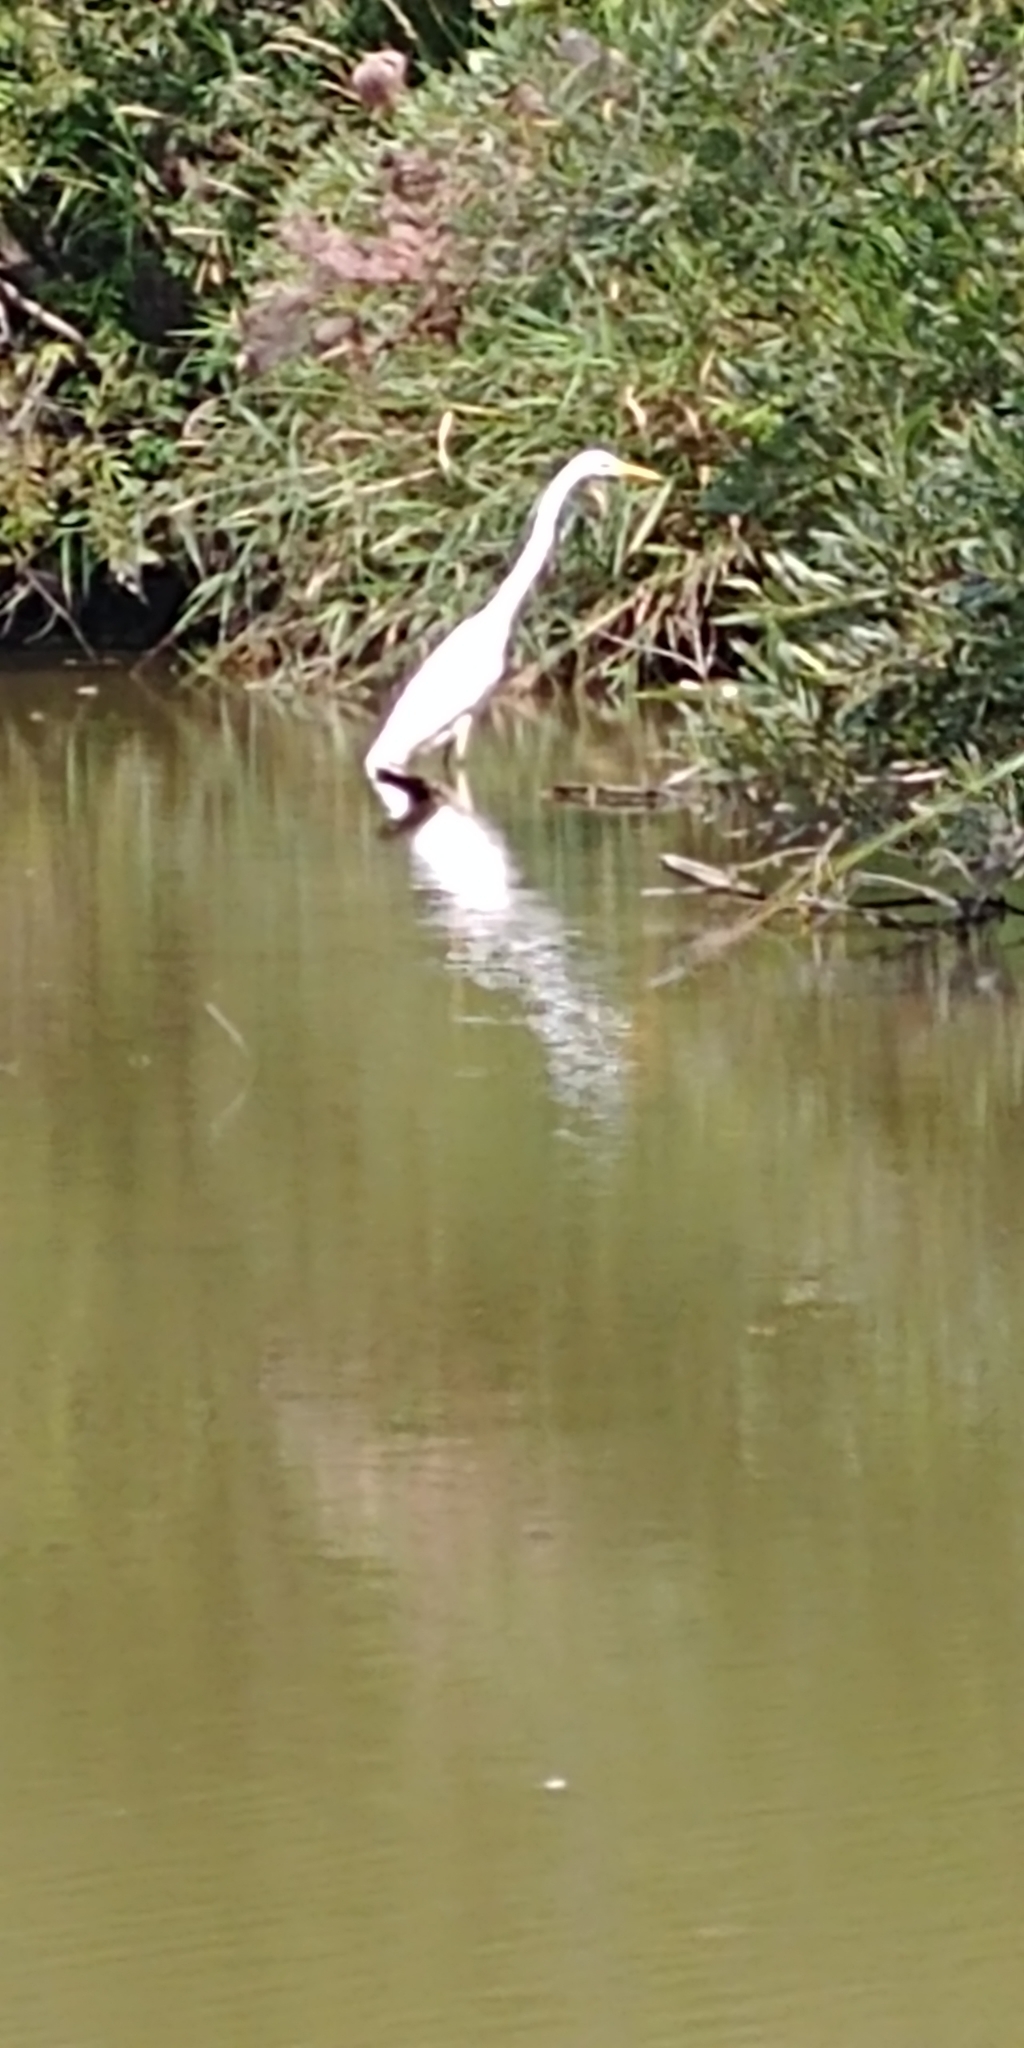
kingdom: Animalia
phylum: Chordata
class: Aves
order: Pelecaniformes
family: Ardeidae
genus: Ardea
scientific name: Ardea alba
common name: Great egret
